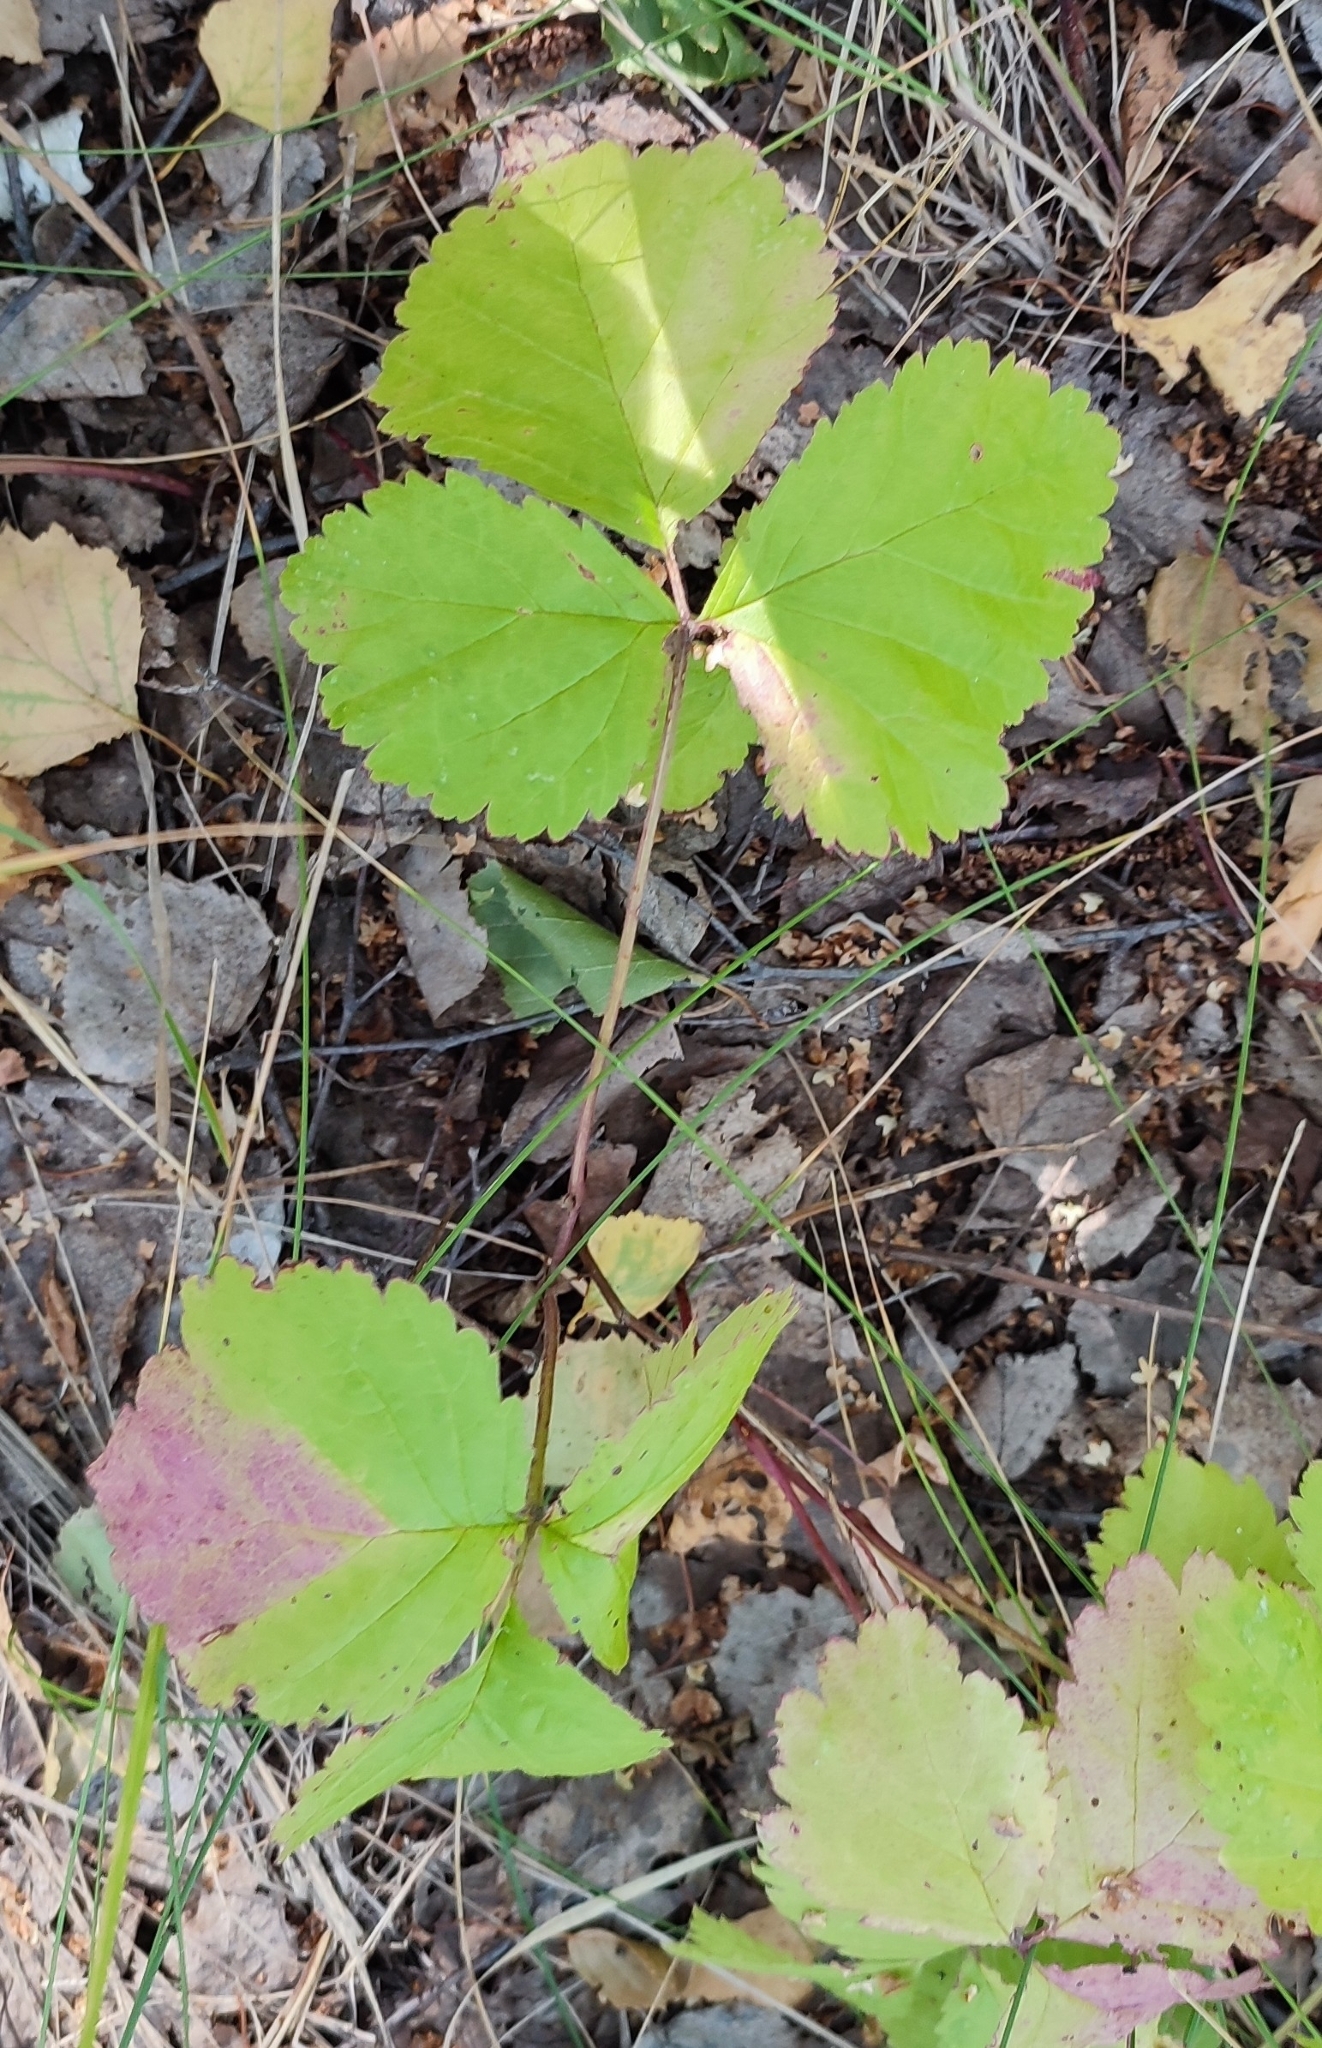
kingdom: Plantae
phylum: Tracheophyta
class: Magnoliopsida
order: Rosales
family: Rosaceae
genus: Rubus
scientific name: Rubus saxatilis
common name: Stone bramble
